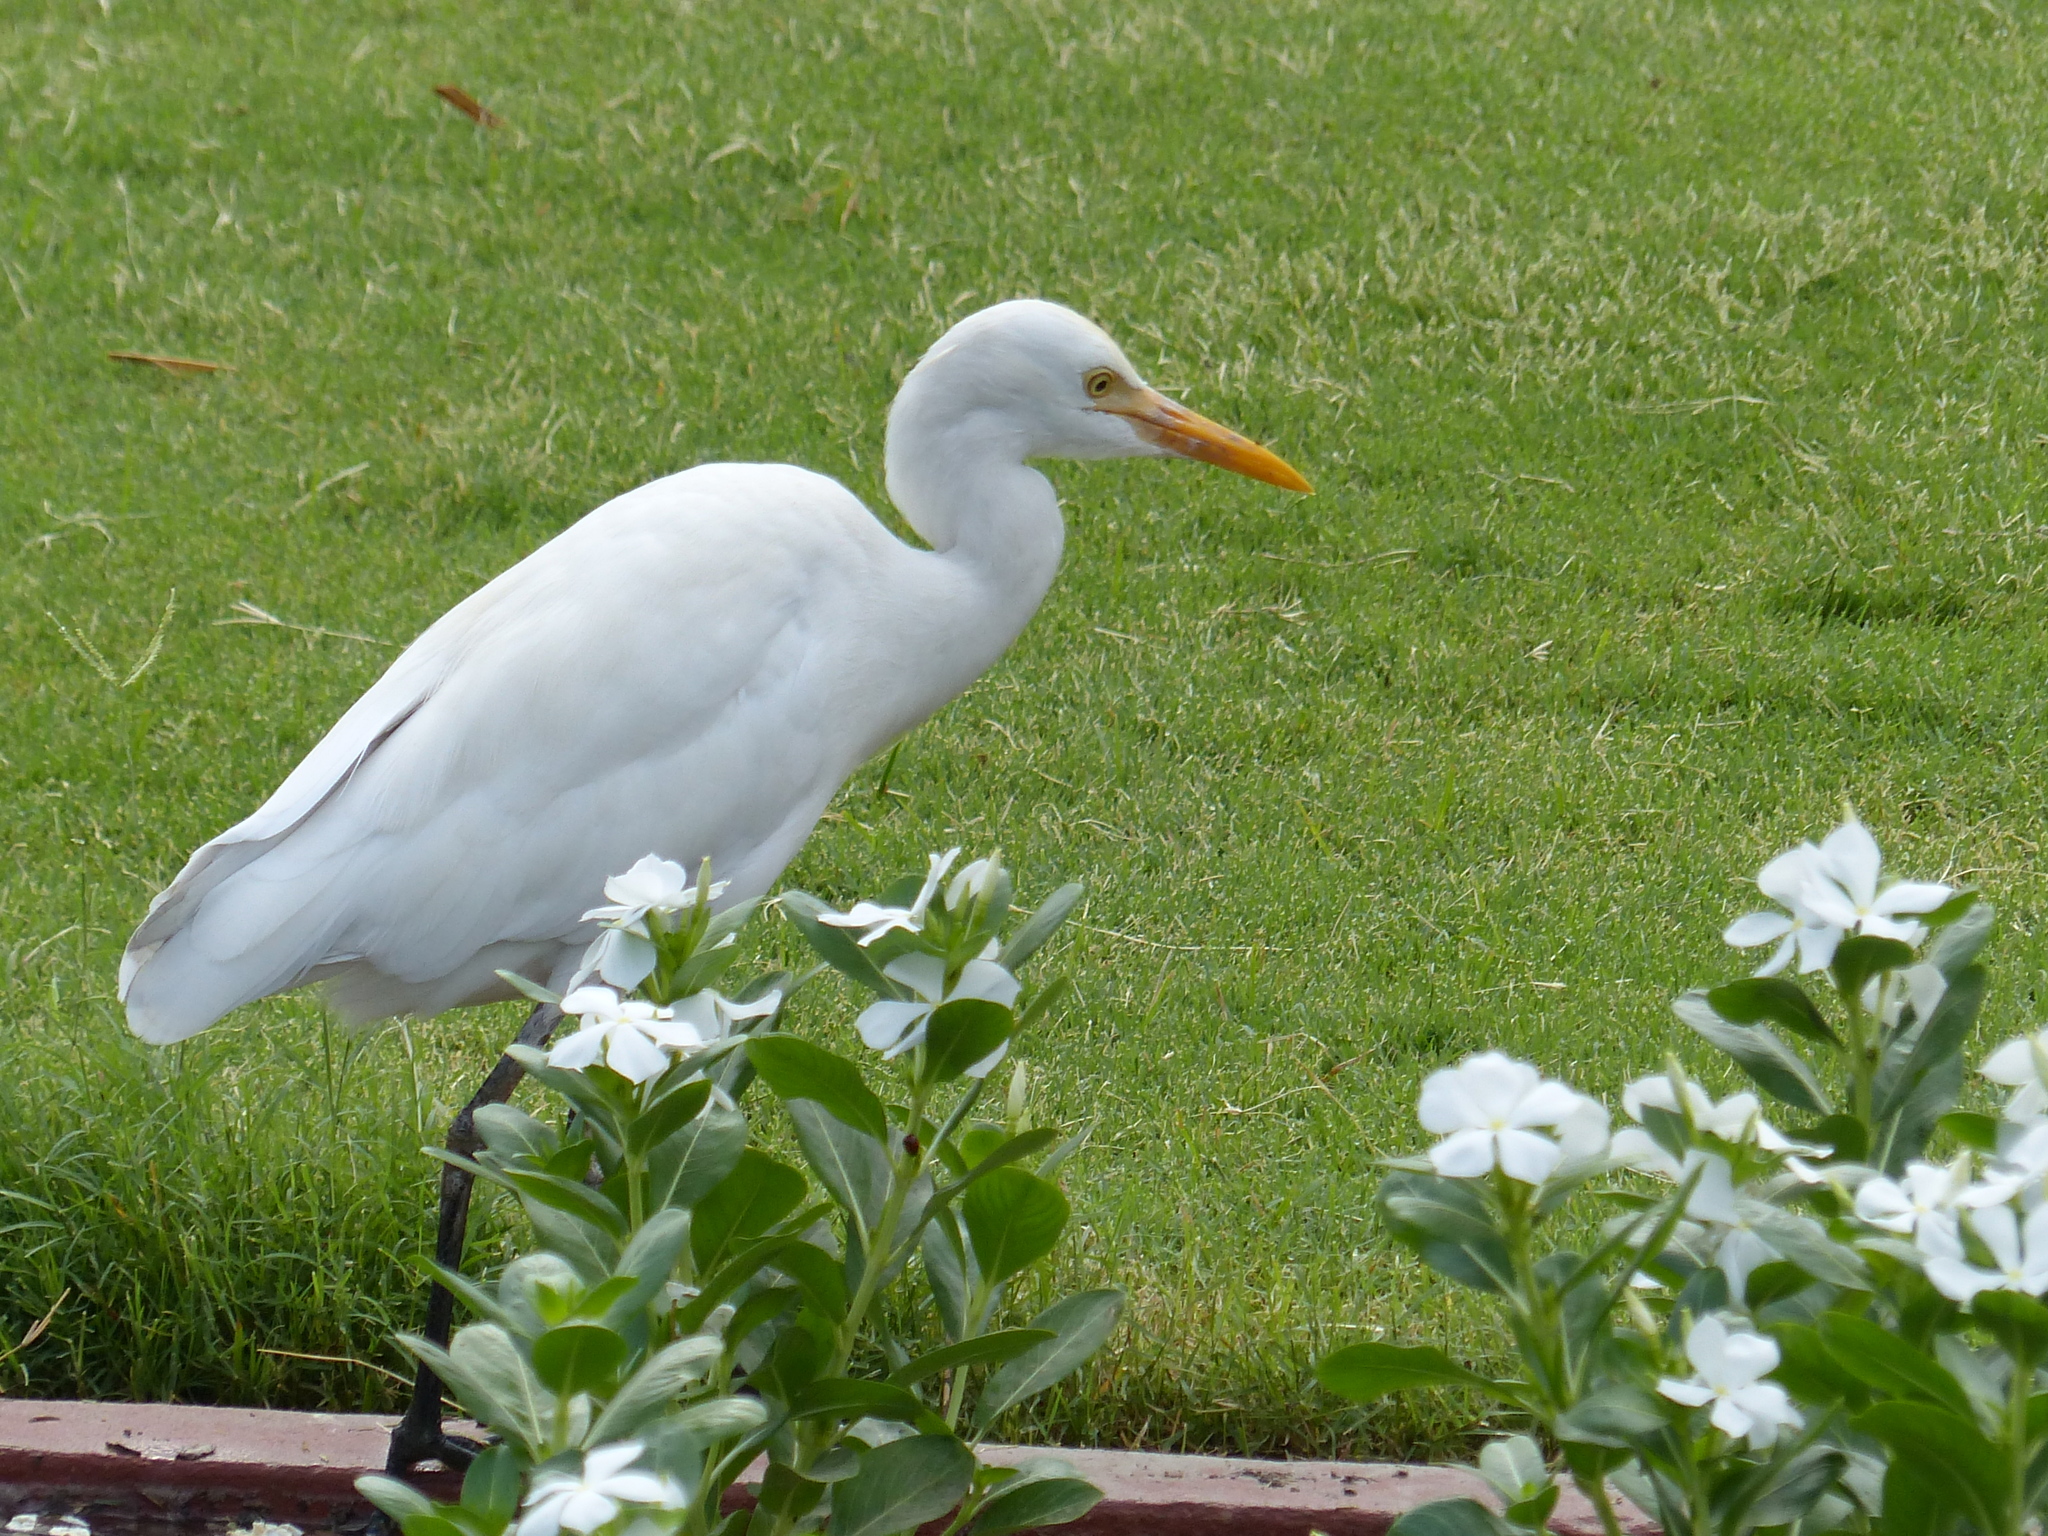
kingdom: Animalia
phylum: Chordata
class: Aves
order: Pelecaniformes
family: Ardeidae
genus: Bubulcus
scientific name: Bubulcus coromandus
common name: Eastern cattle egret
